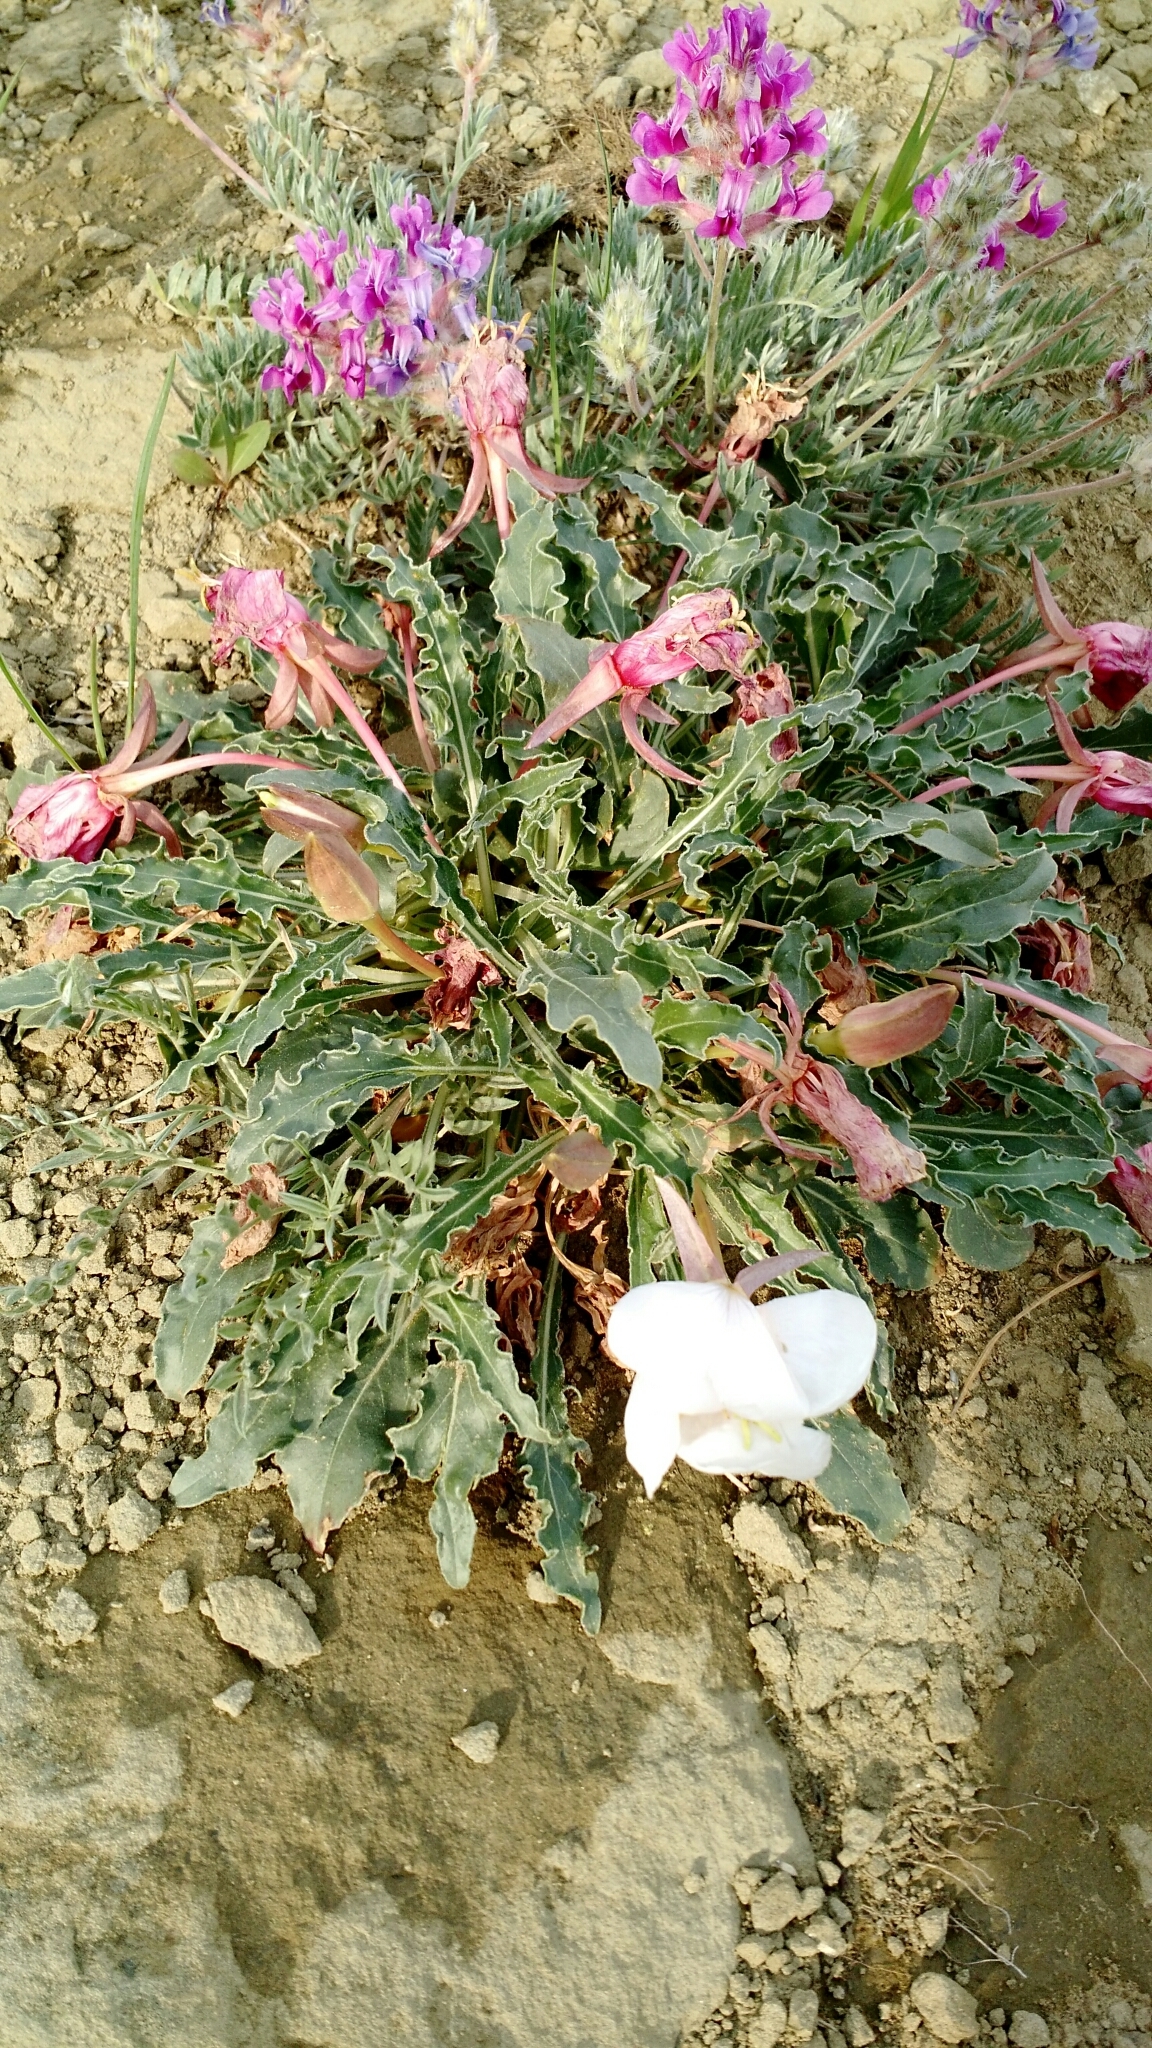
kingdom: Plantae
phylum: Tracheophyta
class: Magnoliopsida
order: Myrtales
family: Onagraceae
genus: Oenothera
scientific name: Oenothera cespitosa
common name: Tufted evening-primrose
